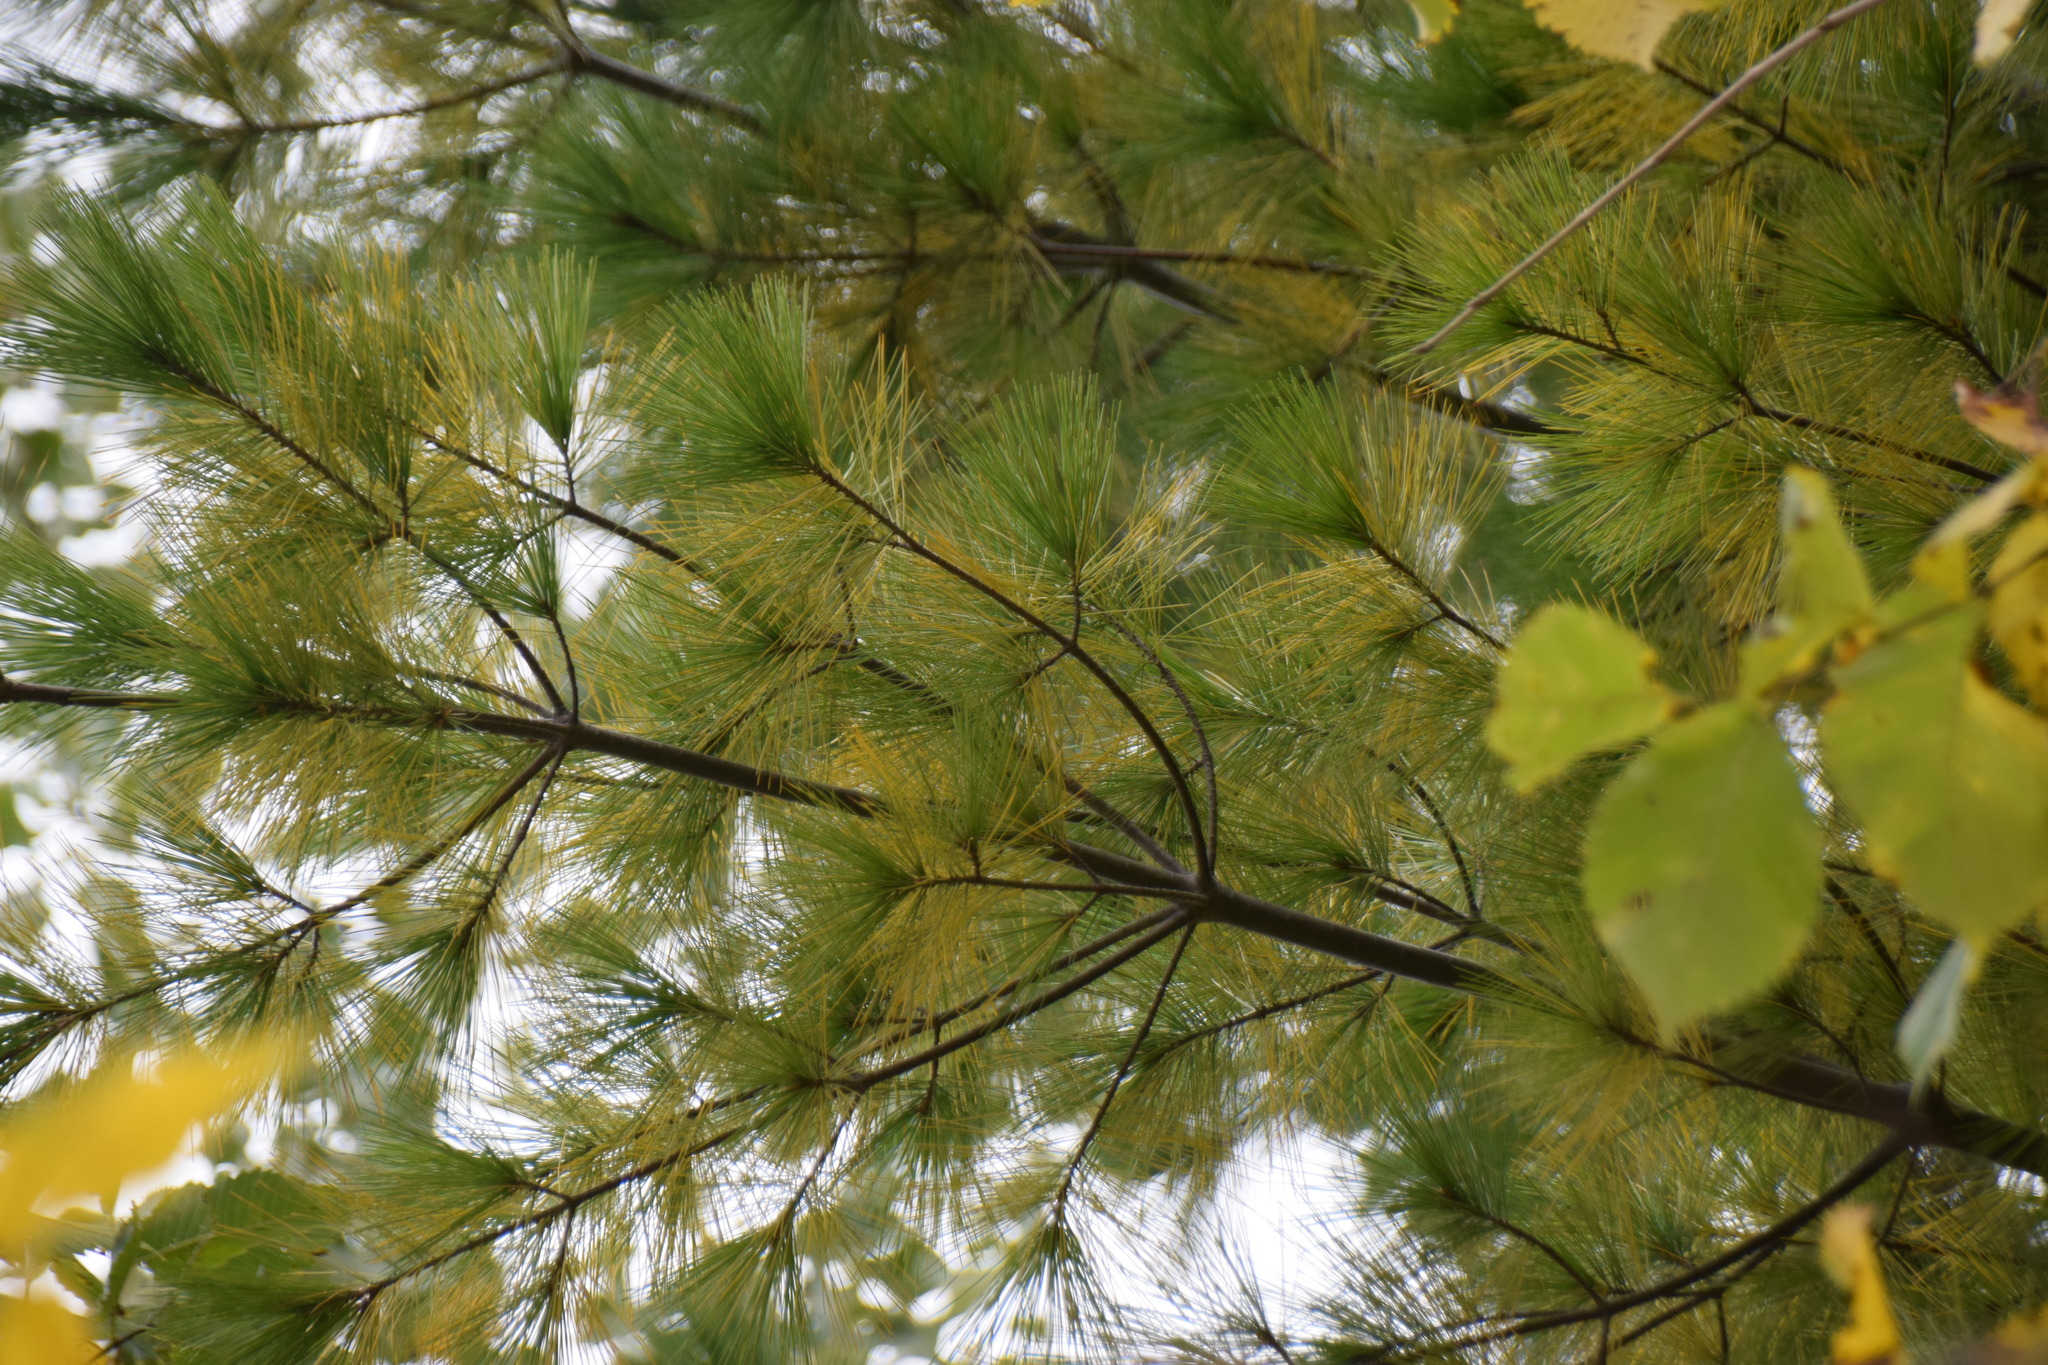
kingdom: Plantae
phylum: Tracheophyta
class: Pinopsida
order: Pinales
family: Pinaceae
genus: Pinus
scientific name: Pinus strobus
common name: Weymouth pine
